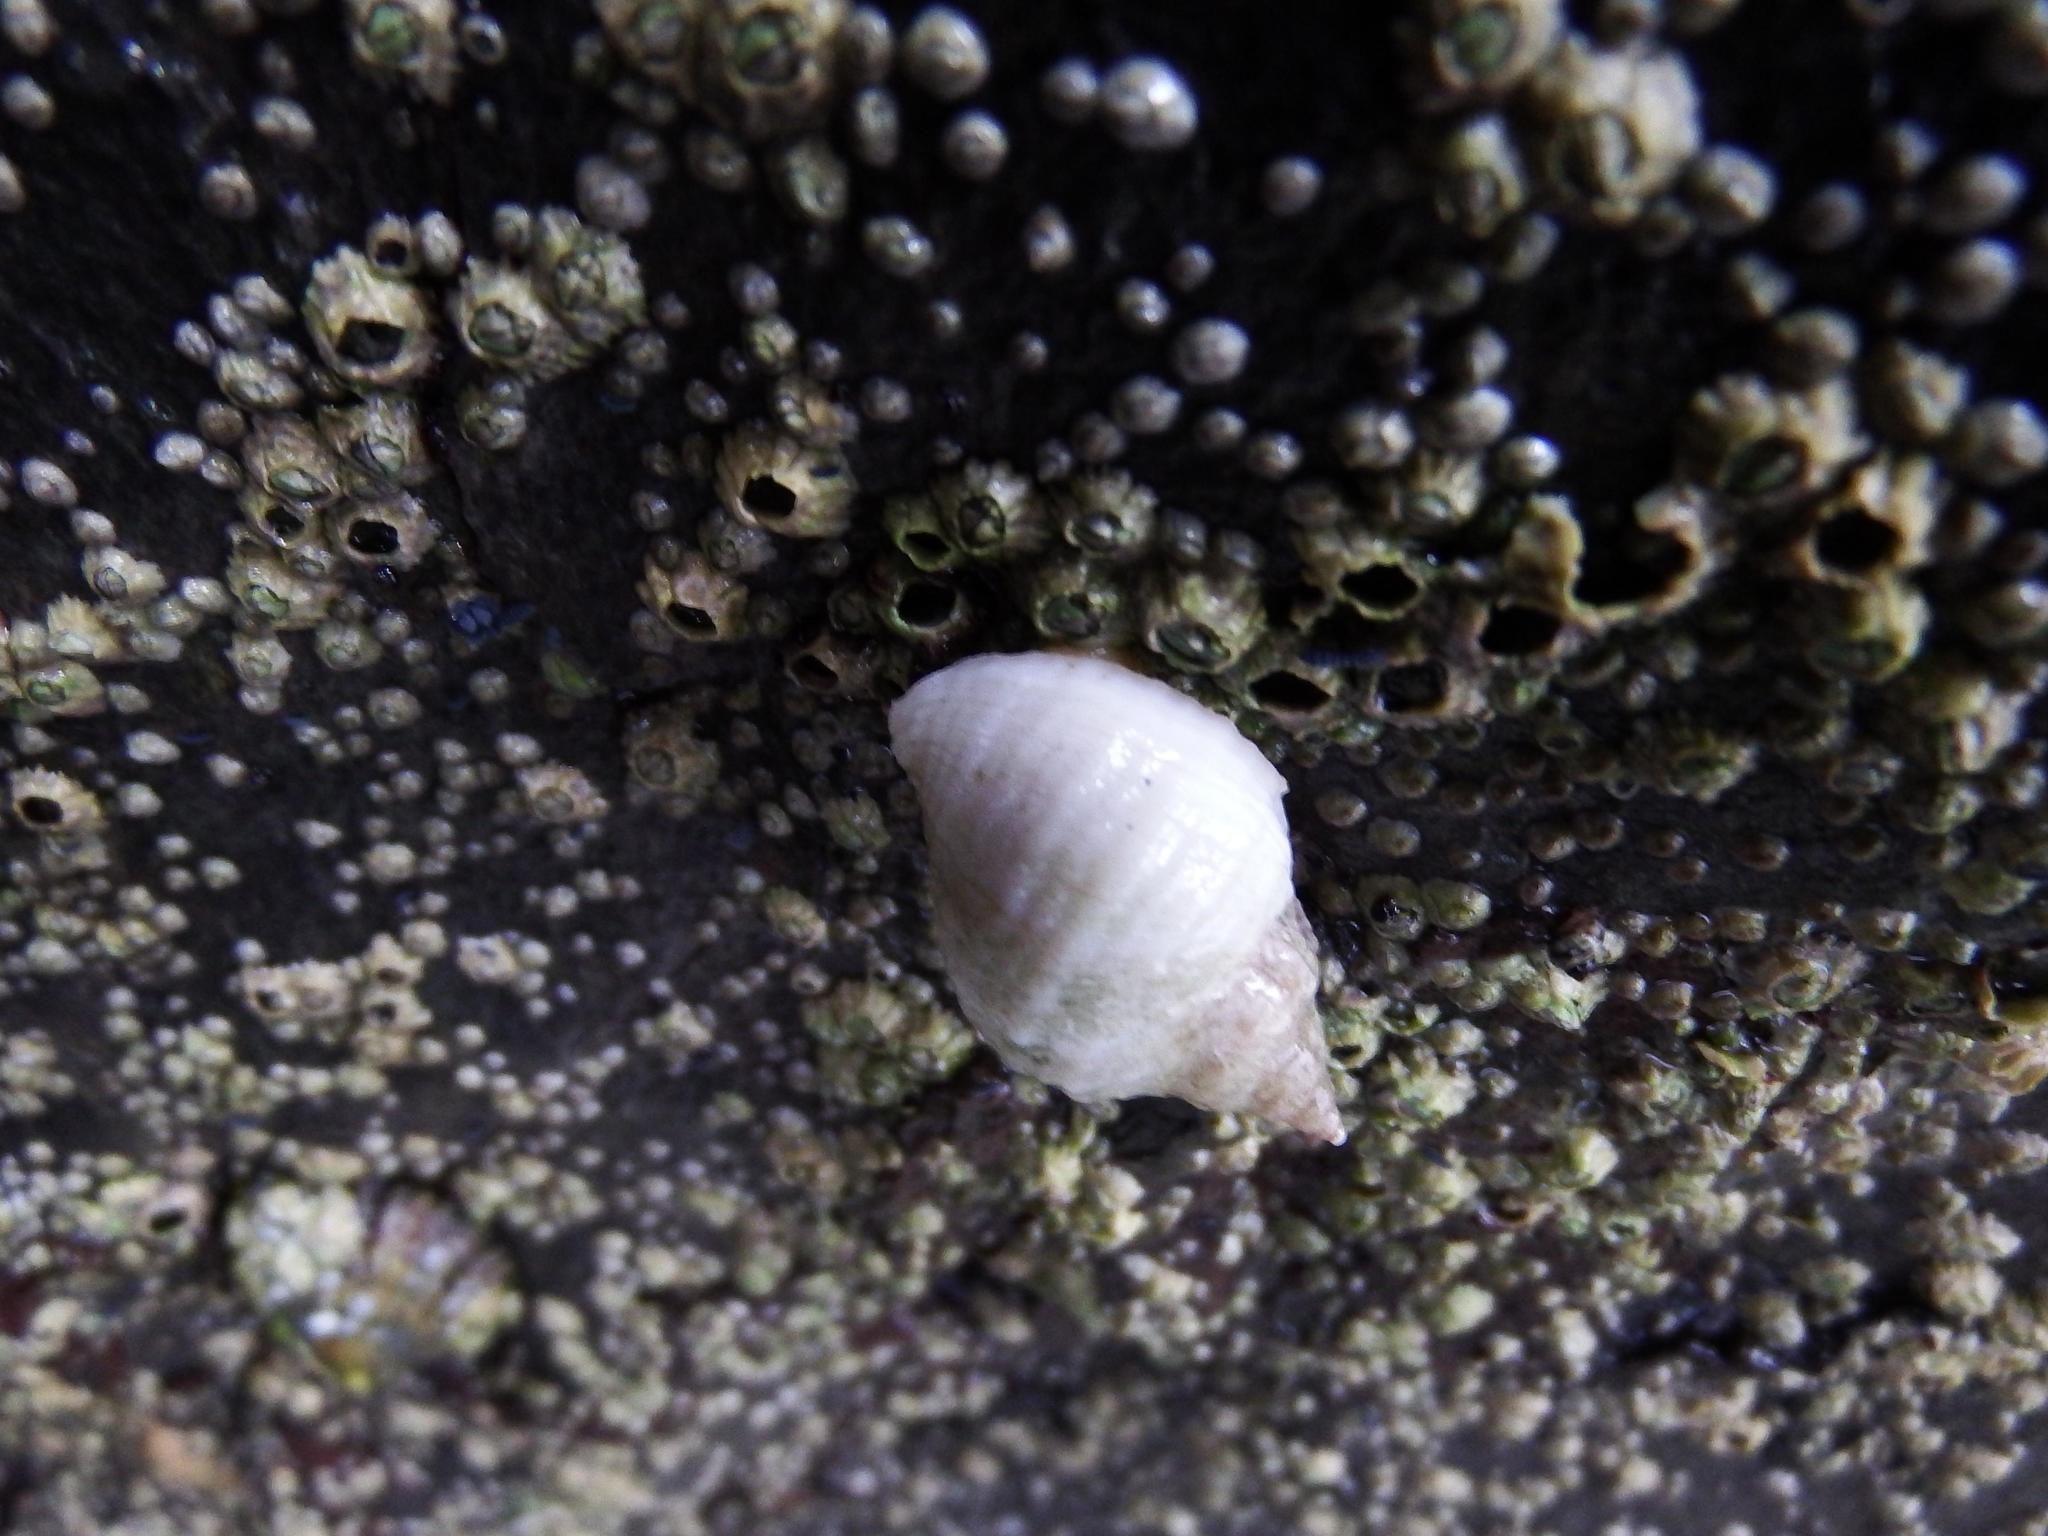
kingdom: Animalia
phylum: Mollusca
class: Gastropoda
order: Neogastropoda
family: Muricidae
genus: Nucella
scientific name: Nucella lapillus
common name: Dog whelk
